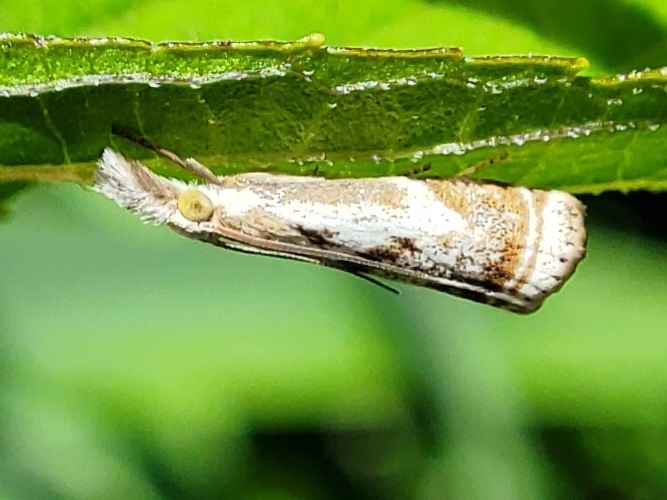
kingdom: Animalia
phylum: Arthropoda
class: Insecta
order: Lepidoptera
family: Crambidae
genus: Microcrambus
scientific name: Microcrambus elegans
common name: Elegant grass-veneer
